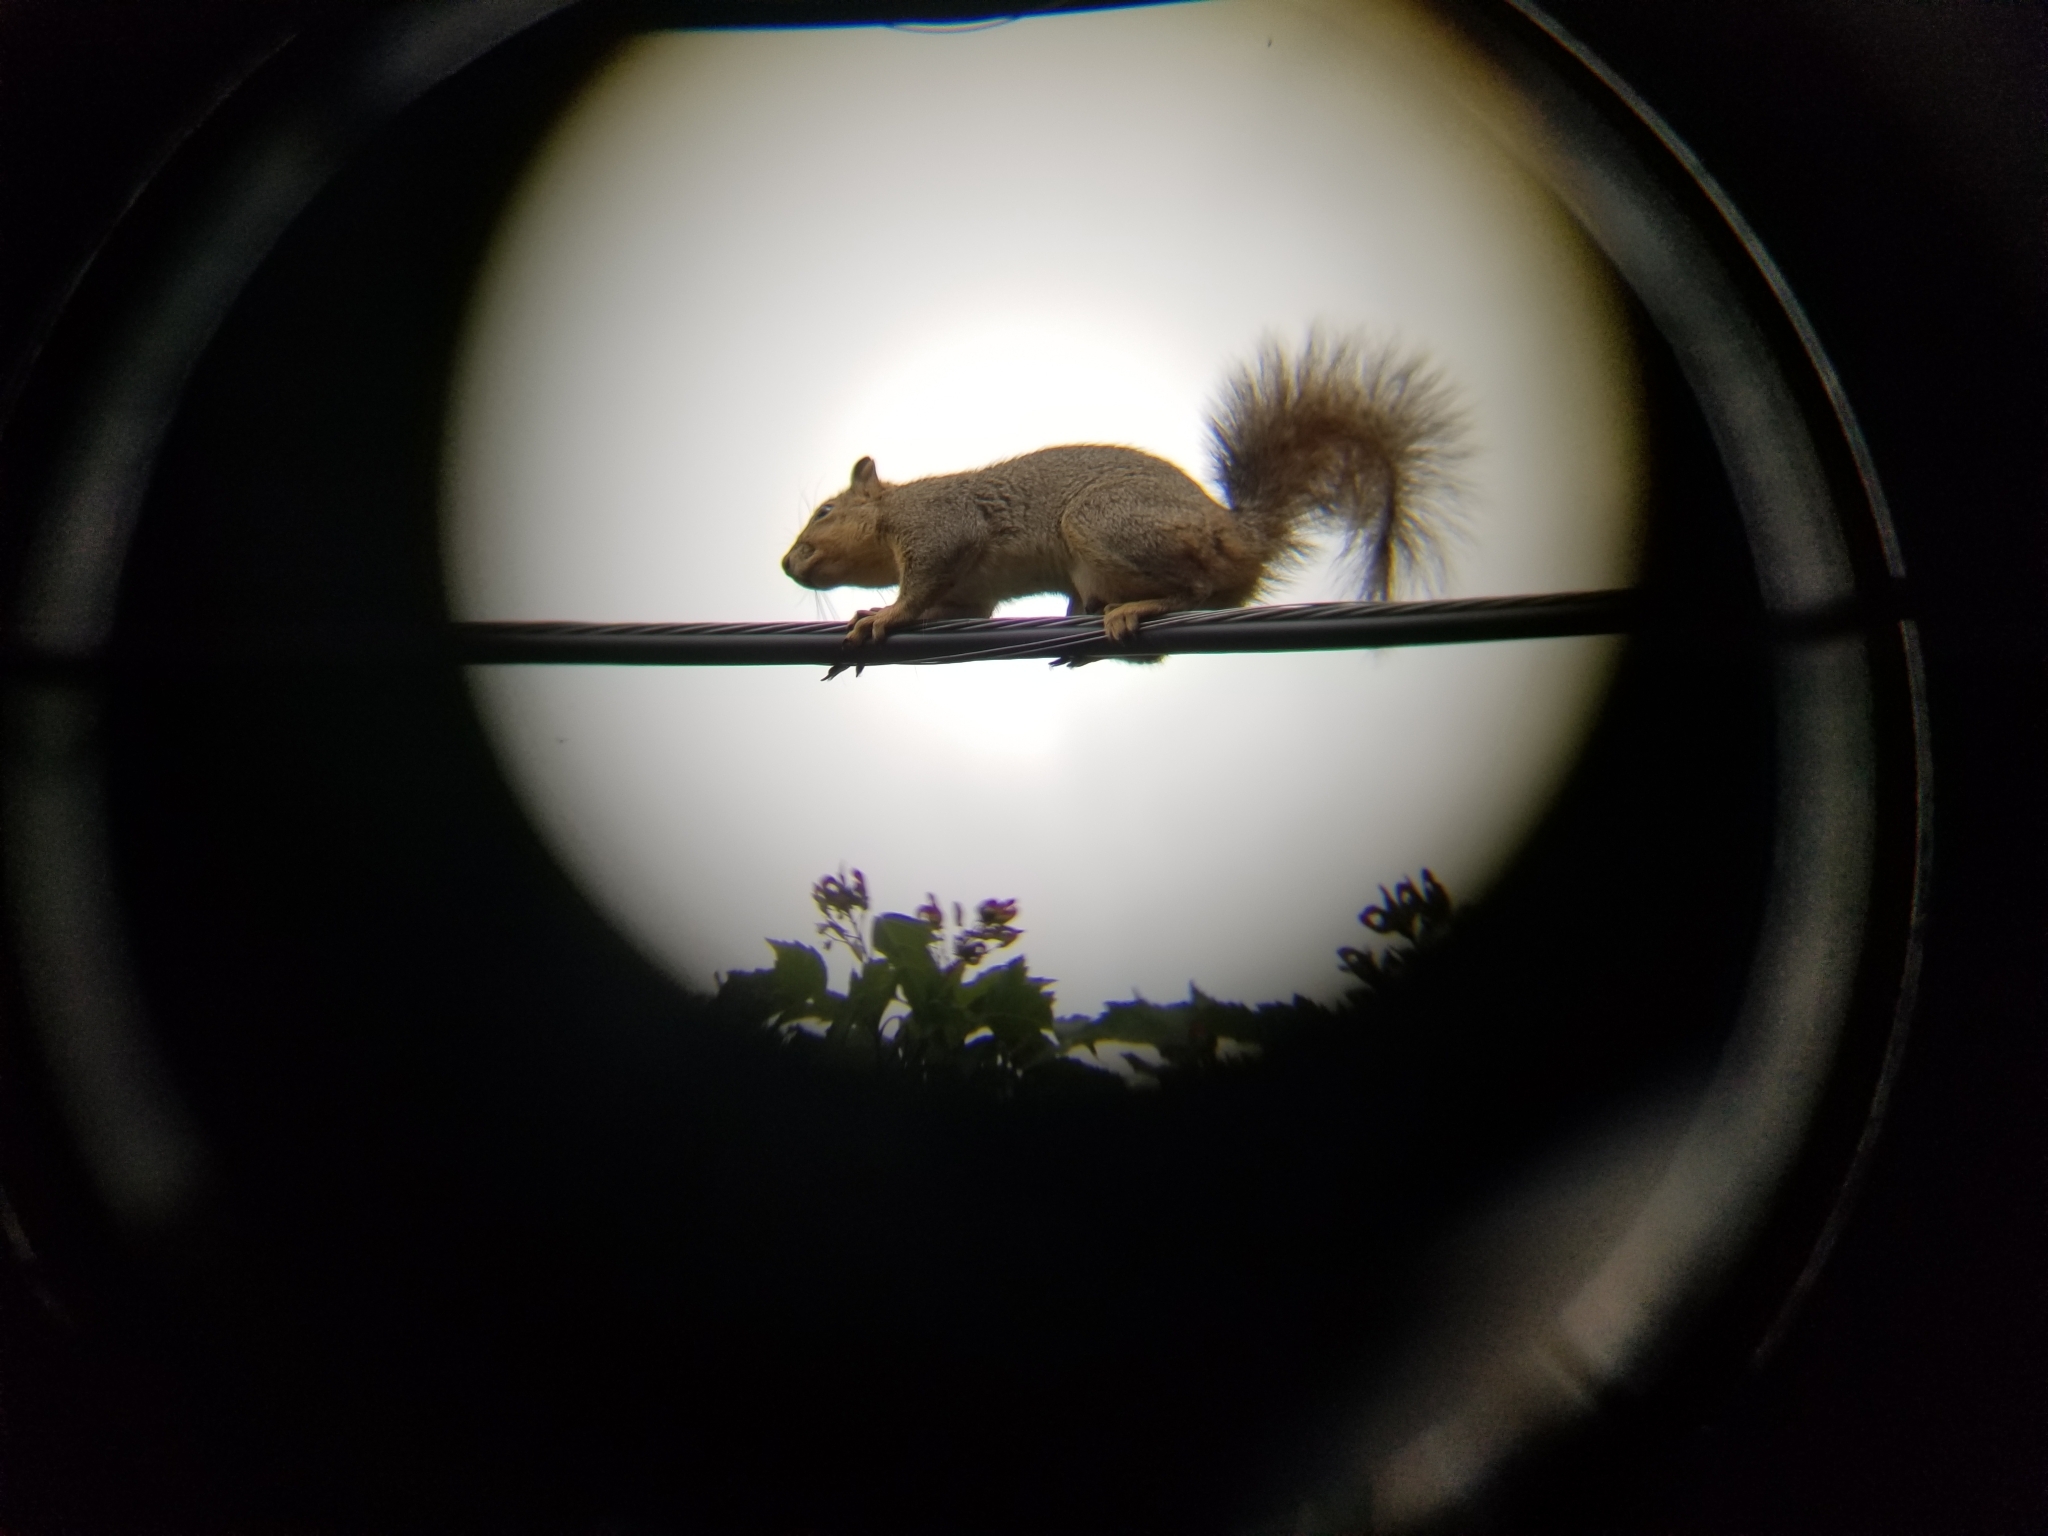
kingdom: Animalia
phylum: Chordata
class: Mammalia
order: Rodentia
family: Sciuridae
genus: Sciurus
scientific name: Sciurus niger
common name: Fox squirrel
